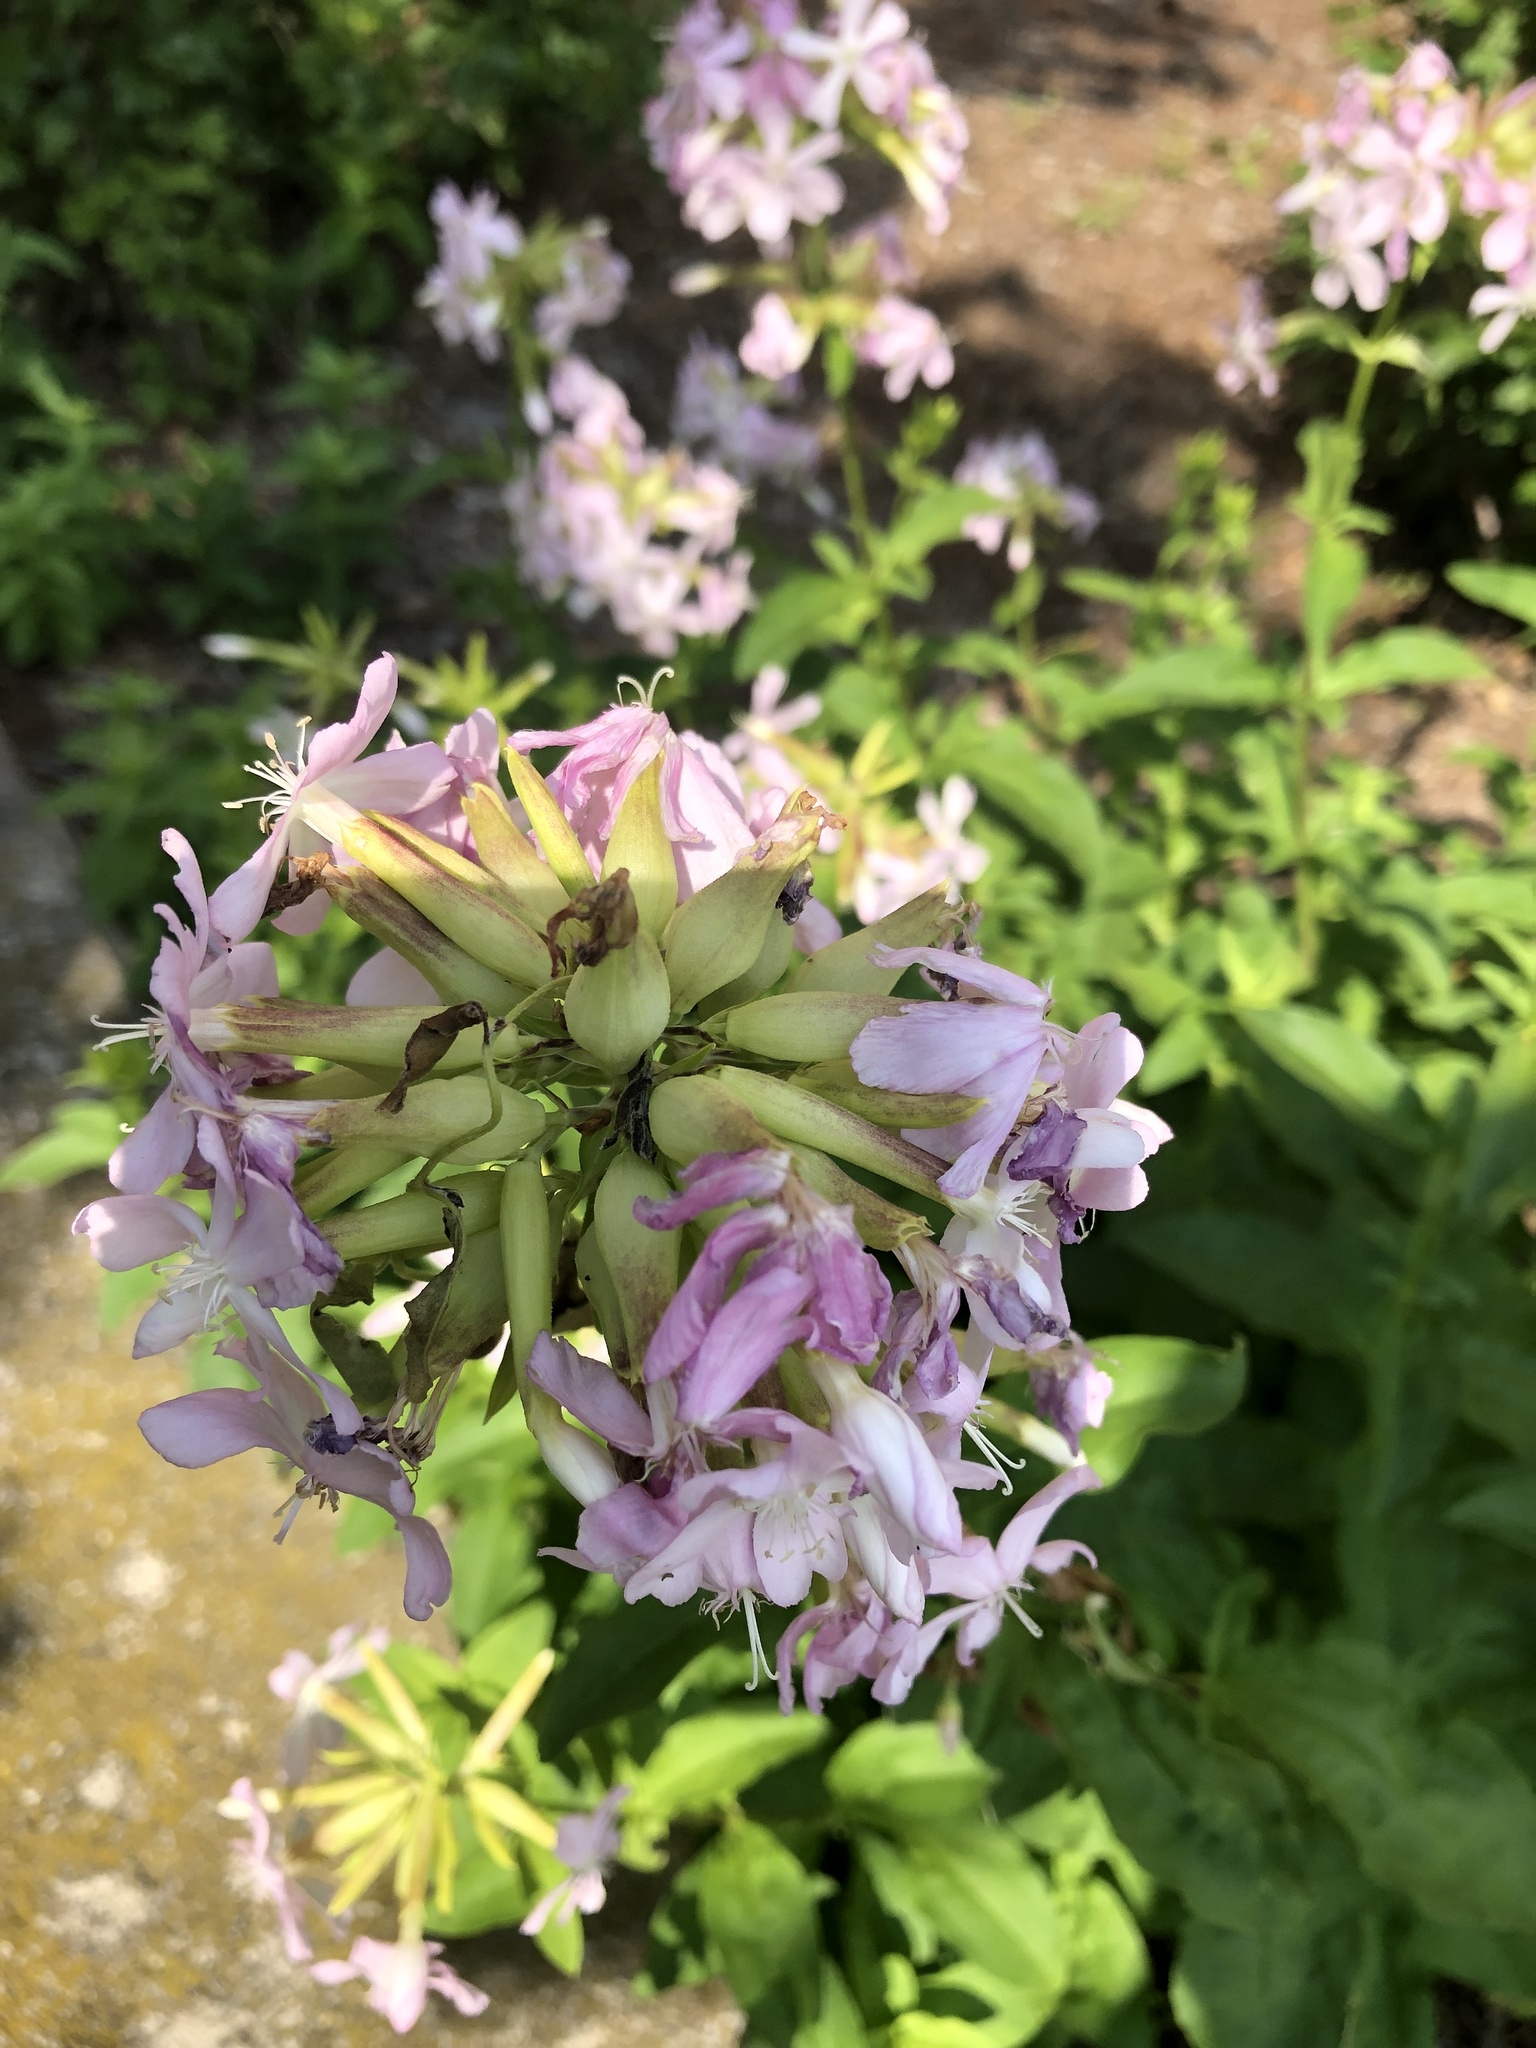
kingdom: Plantae
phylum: Tracheophyta
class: Magnoliopsida
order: Caryophyllales
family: Caryophyllaceae
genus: Saponaria
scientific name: Saponaria officinalis
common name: Soapwort
